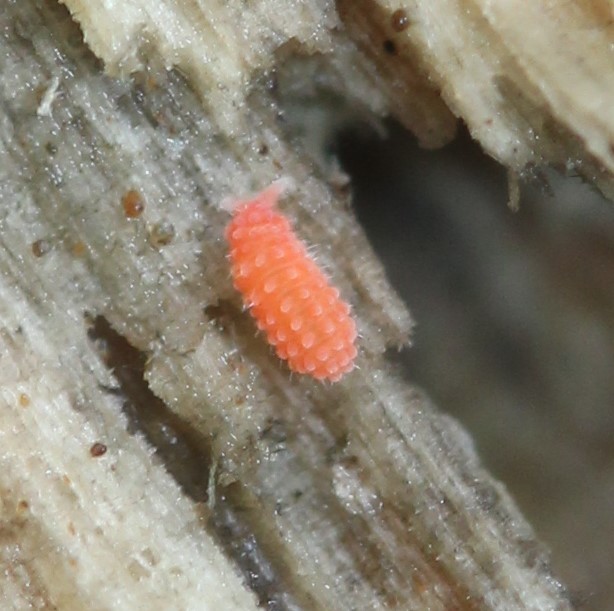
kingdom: Animalia
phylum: Arthropoda
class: Collembola
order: Poduromorpha
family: Neanuridae
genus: Vitronura
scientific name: Vitronura giselae
